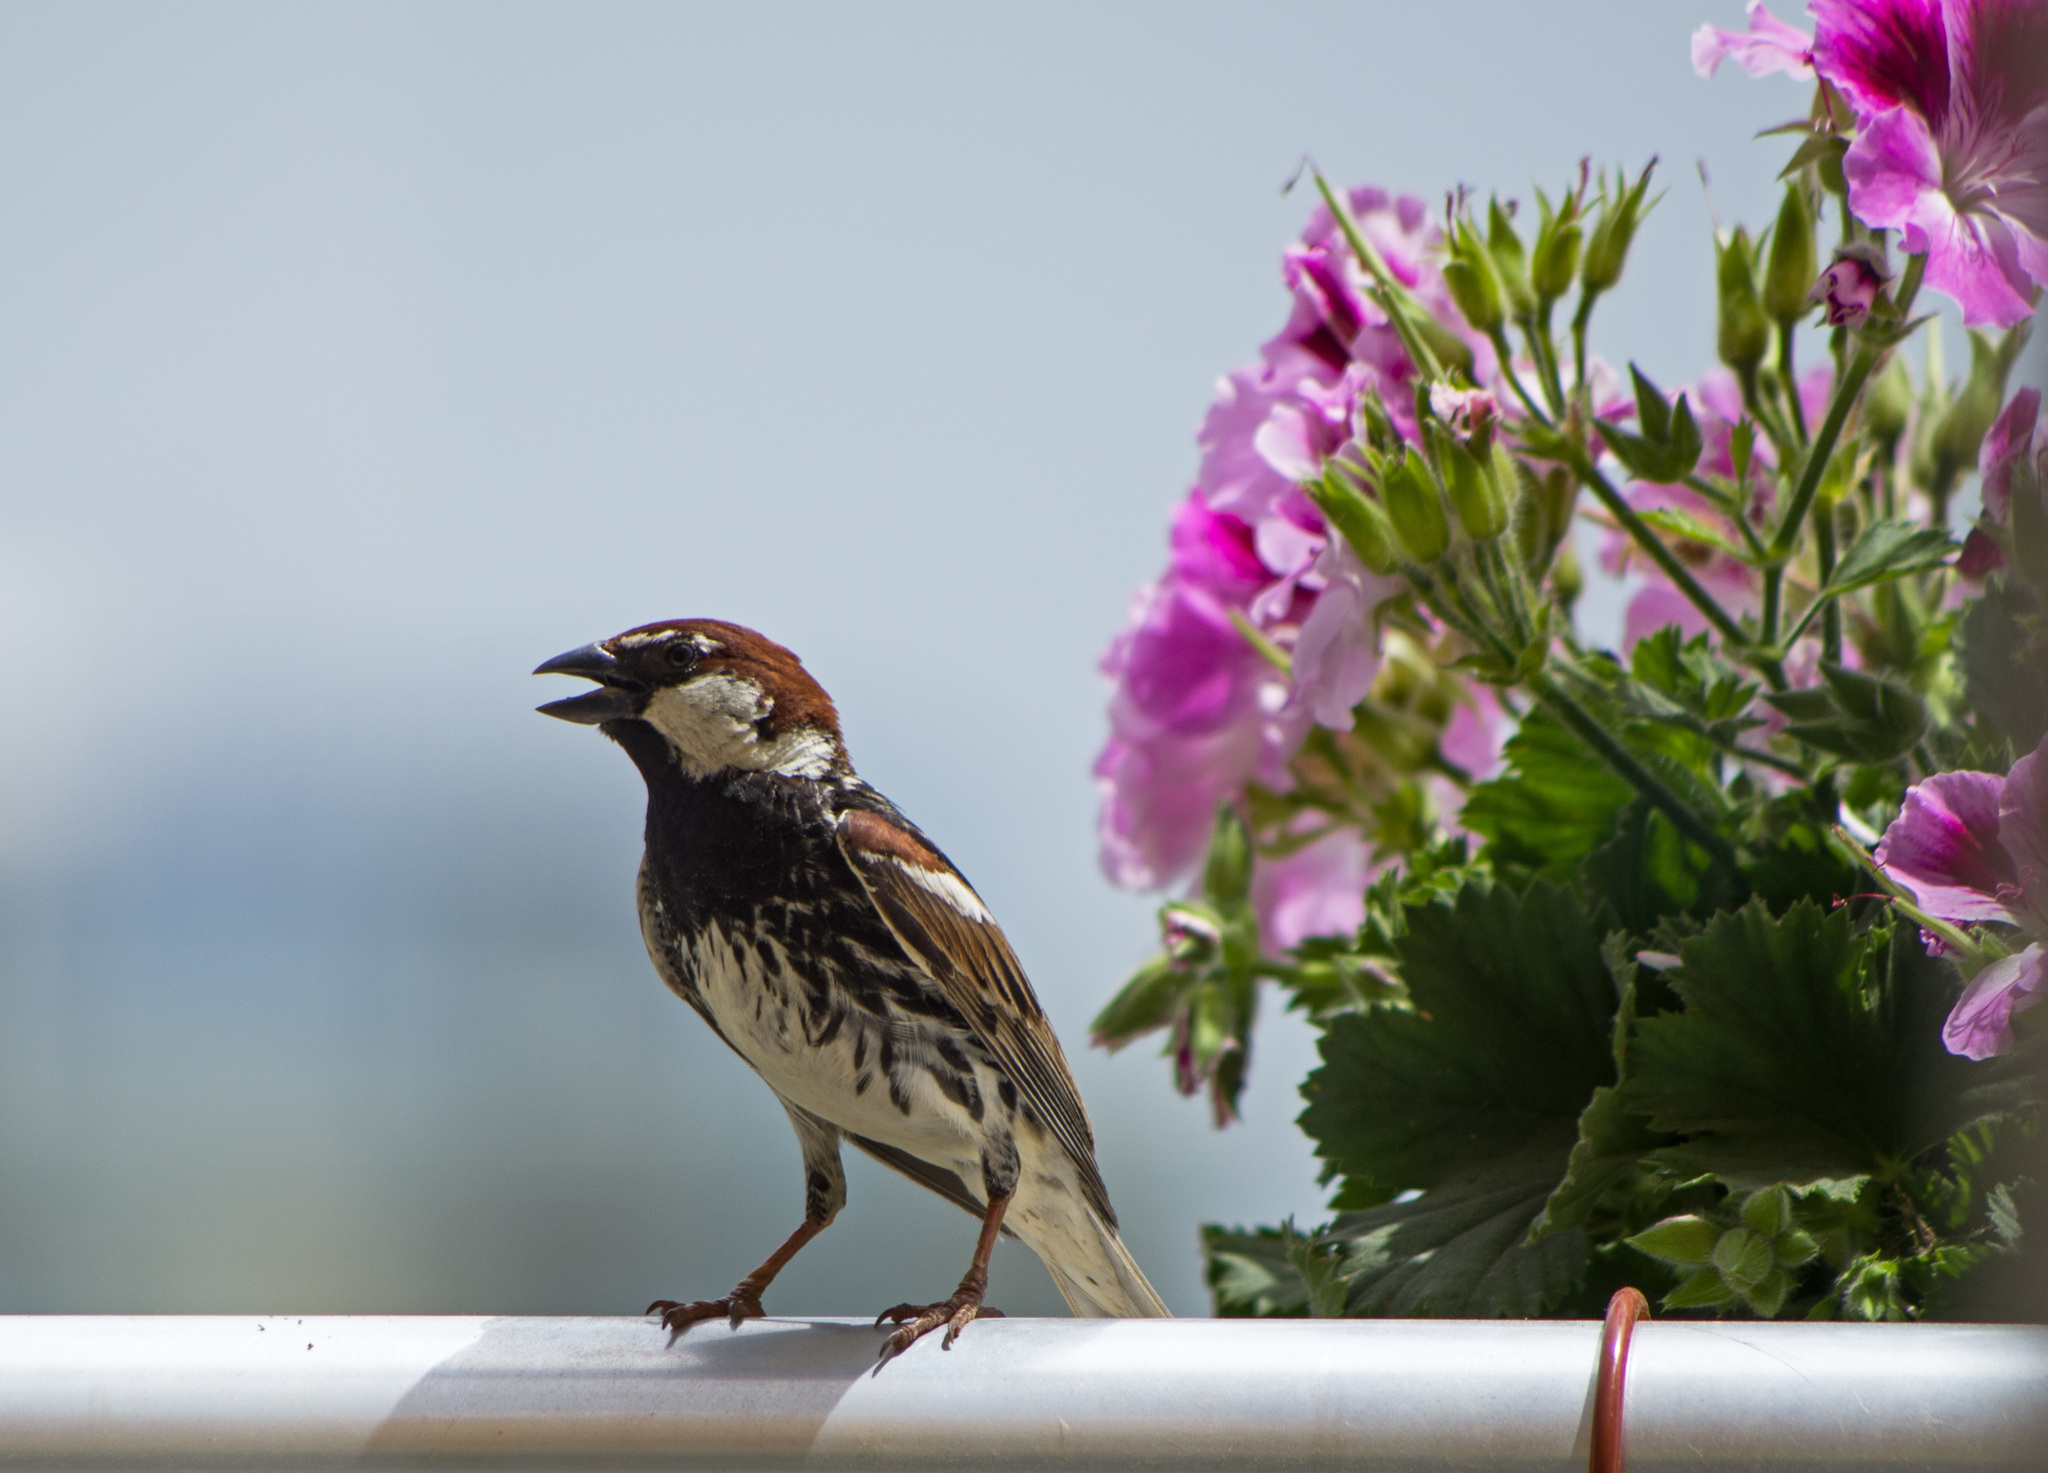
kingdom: Animalia
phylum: Chordata
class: Aves
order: Passeriformes
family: Passeridae
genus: Passer
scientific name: Passer hispaniolensis
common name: Spanish sparrow
